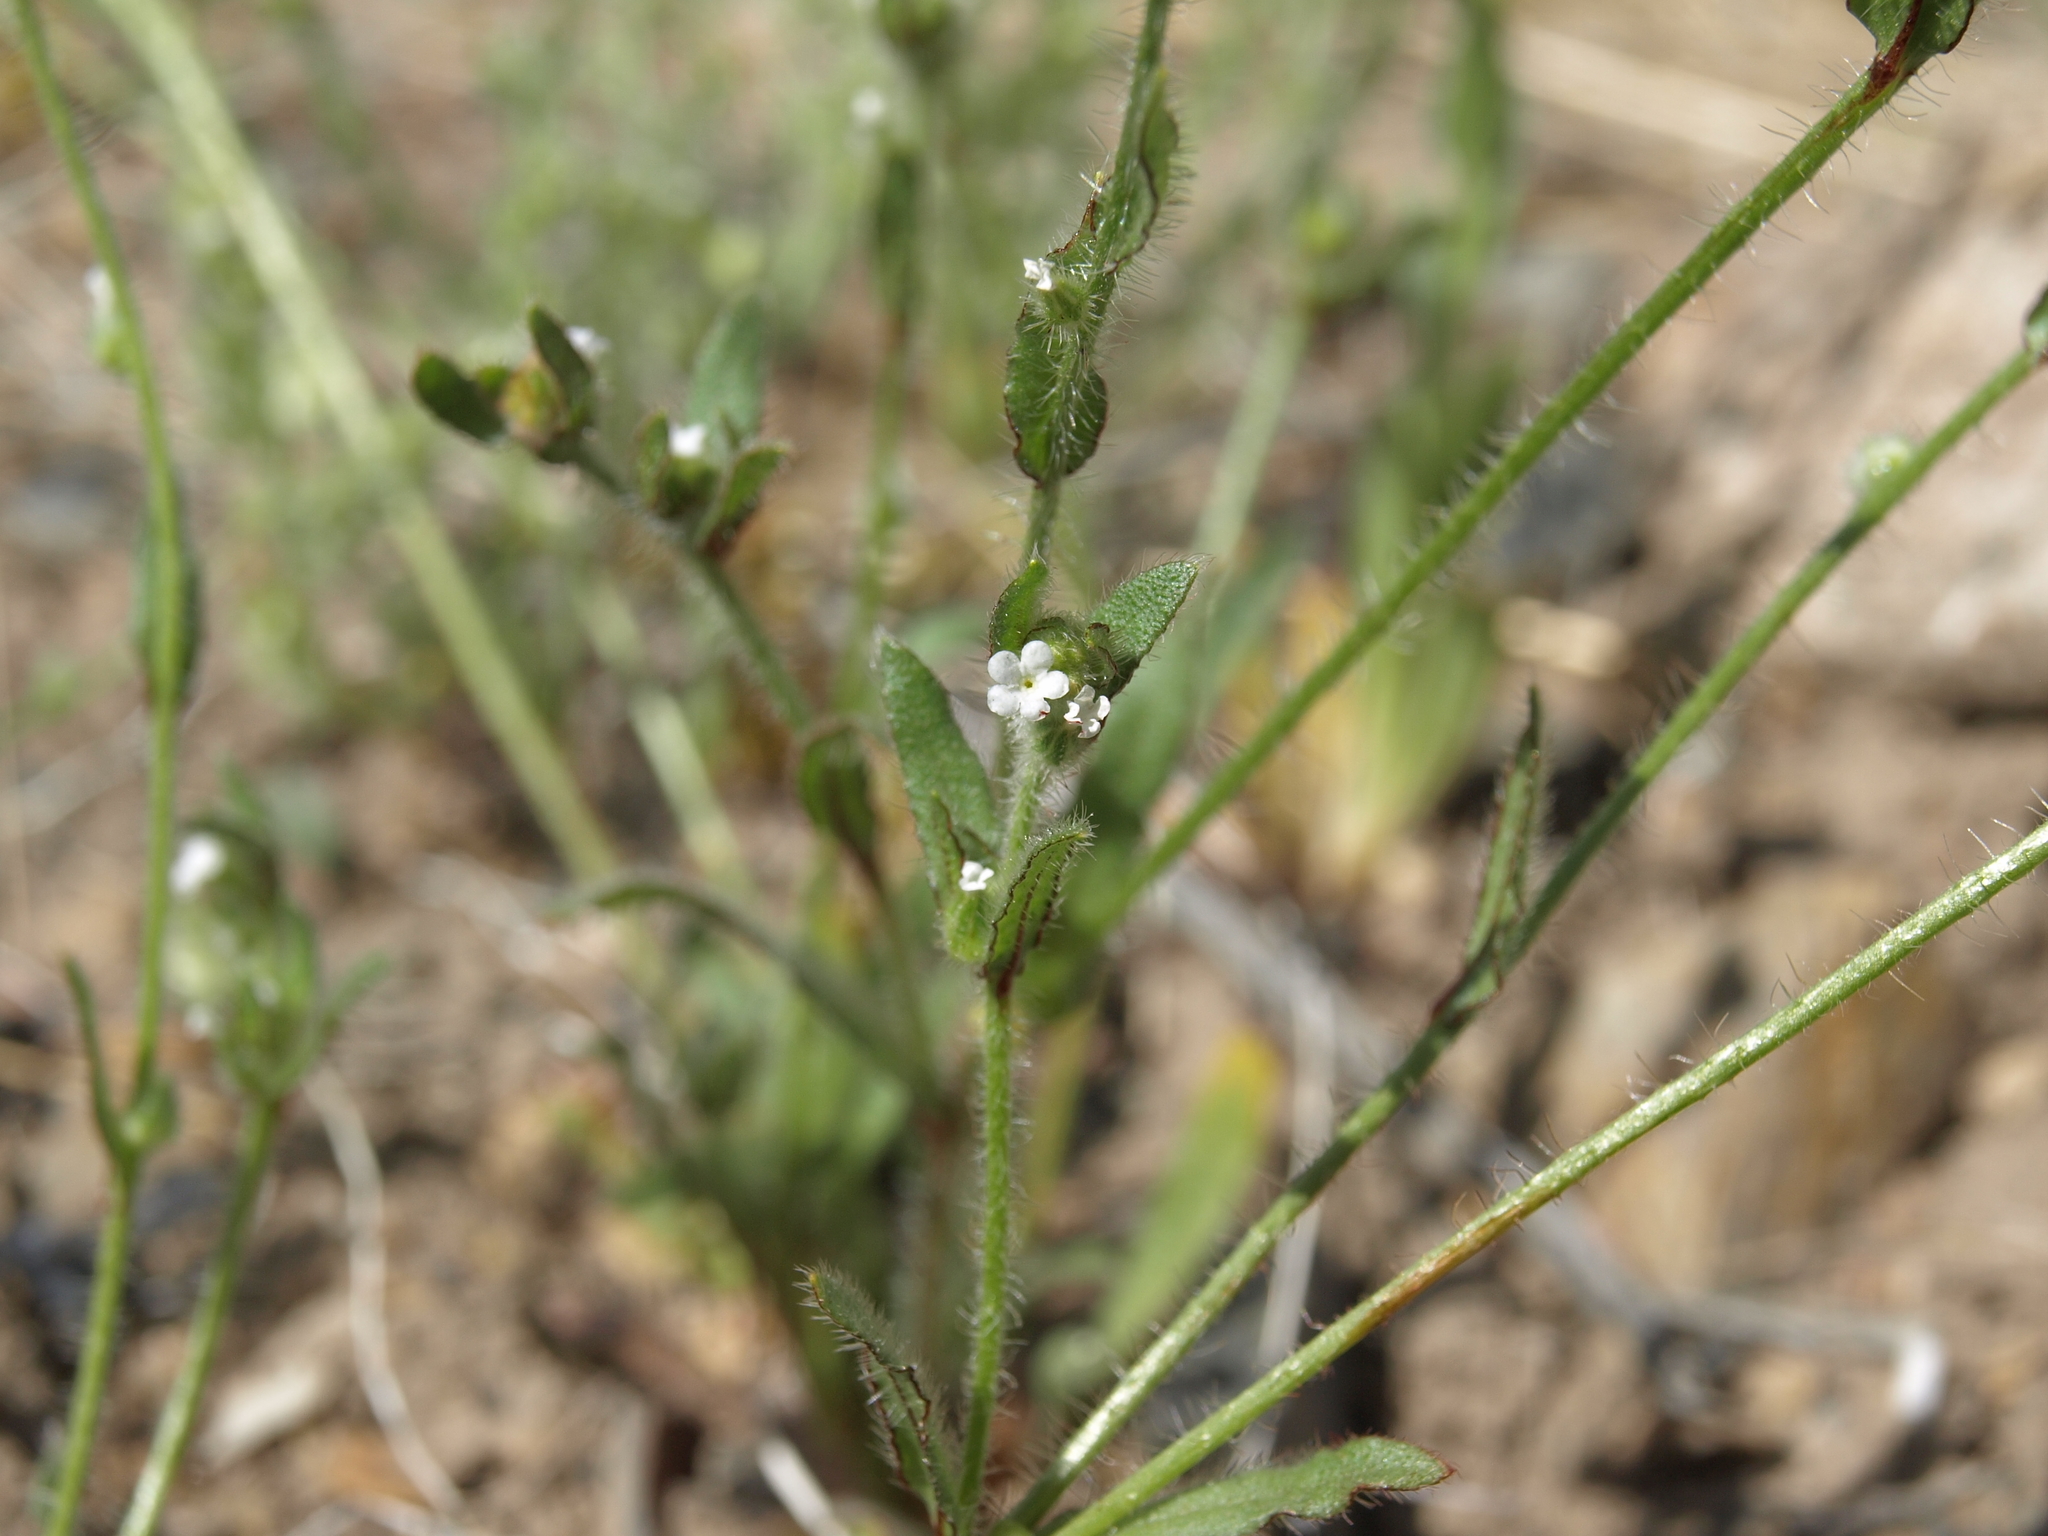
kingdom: Plantae
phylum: Tracheophyta
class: Magnoliopsida
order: Boraginales
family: Boraginaceae
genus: Plagiobothrys
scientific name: Plagiobothrys arizonicus
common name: Arizona popcorn-flower
